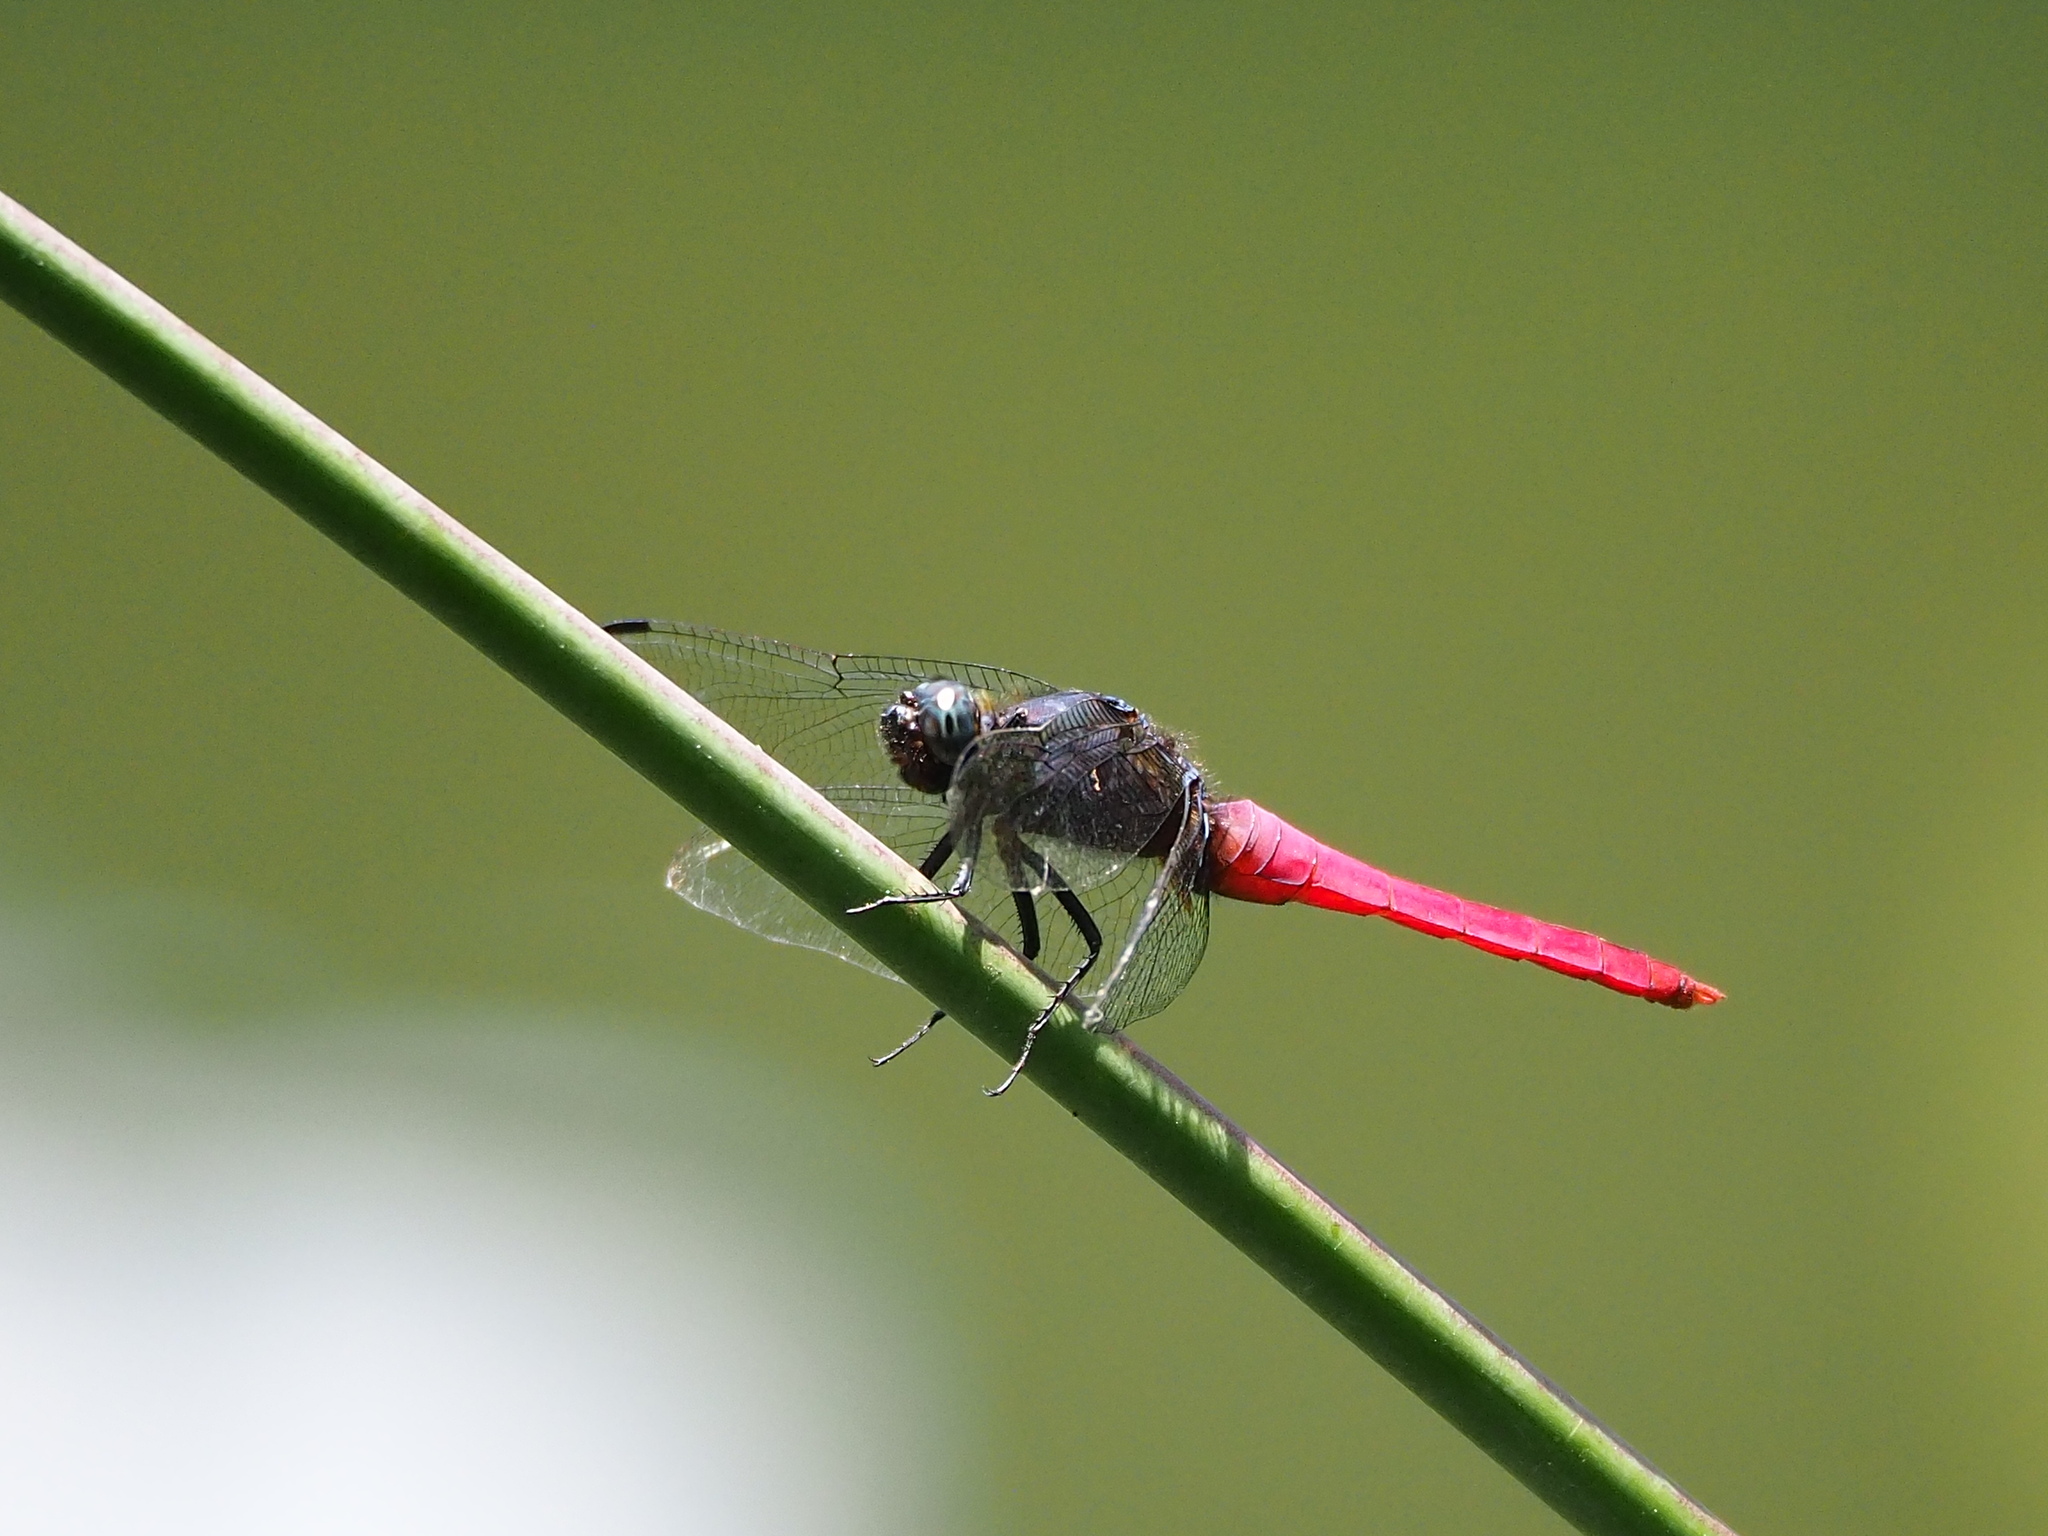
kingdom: Animalia
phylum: Arthropoda
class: Insecta
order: Odonata
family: Libellulidae
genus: Orthetrum
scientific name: Orthetrum pruinosum
